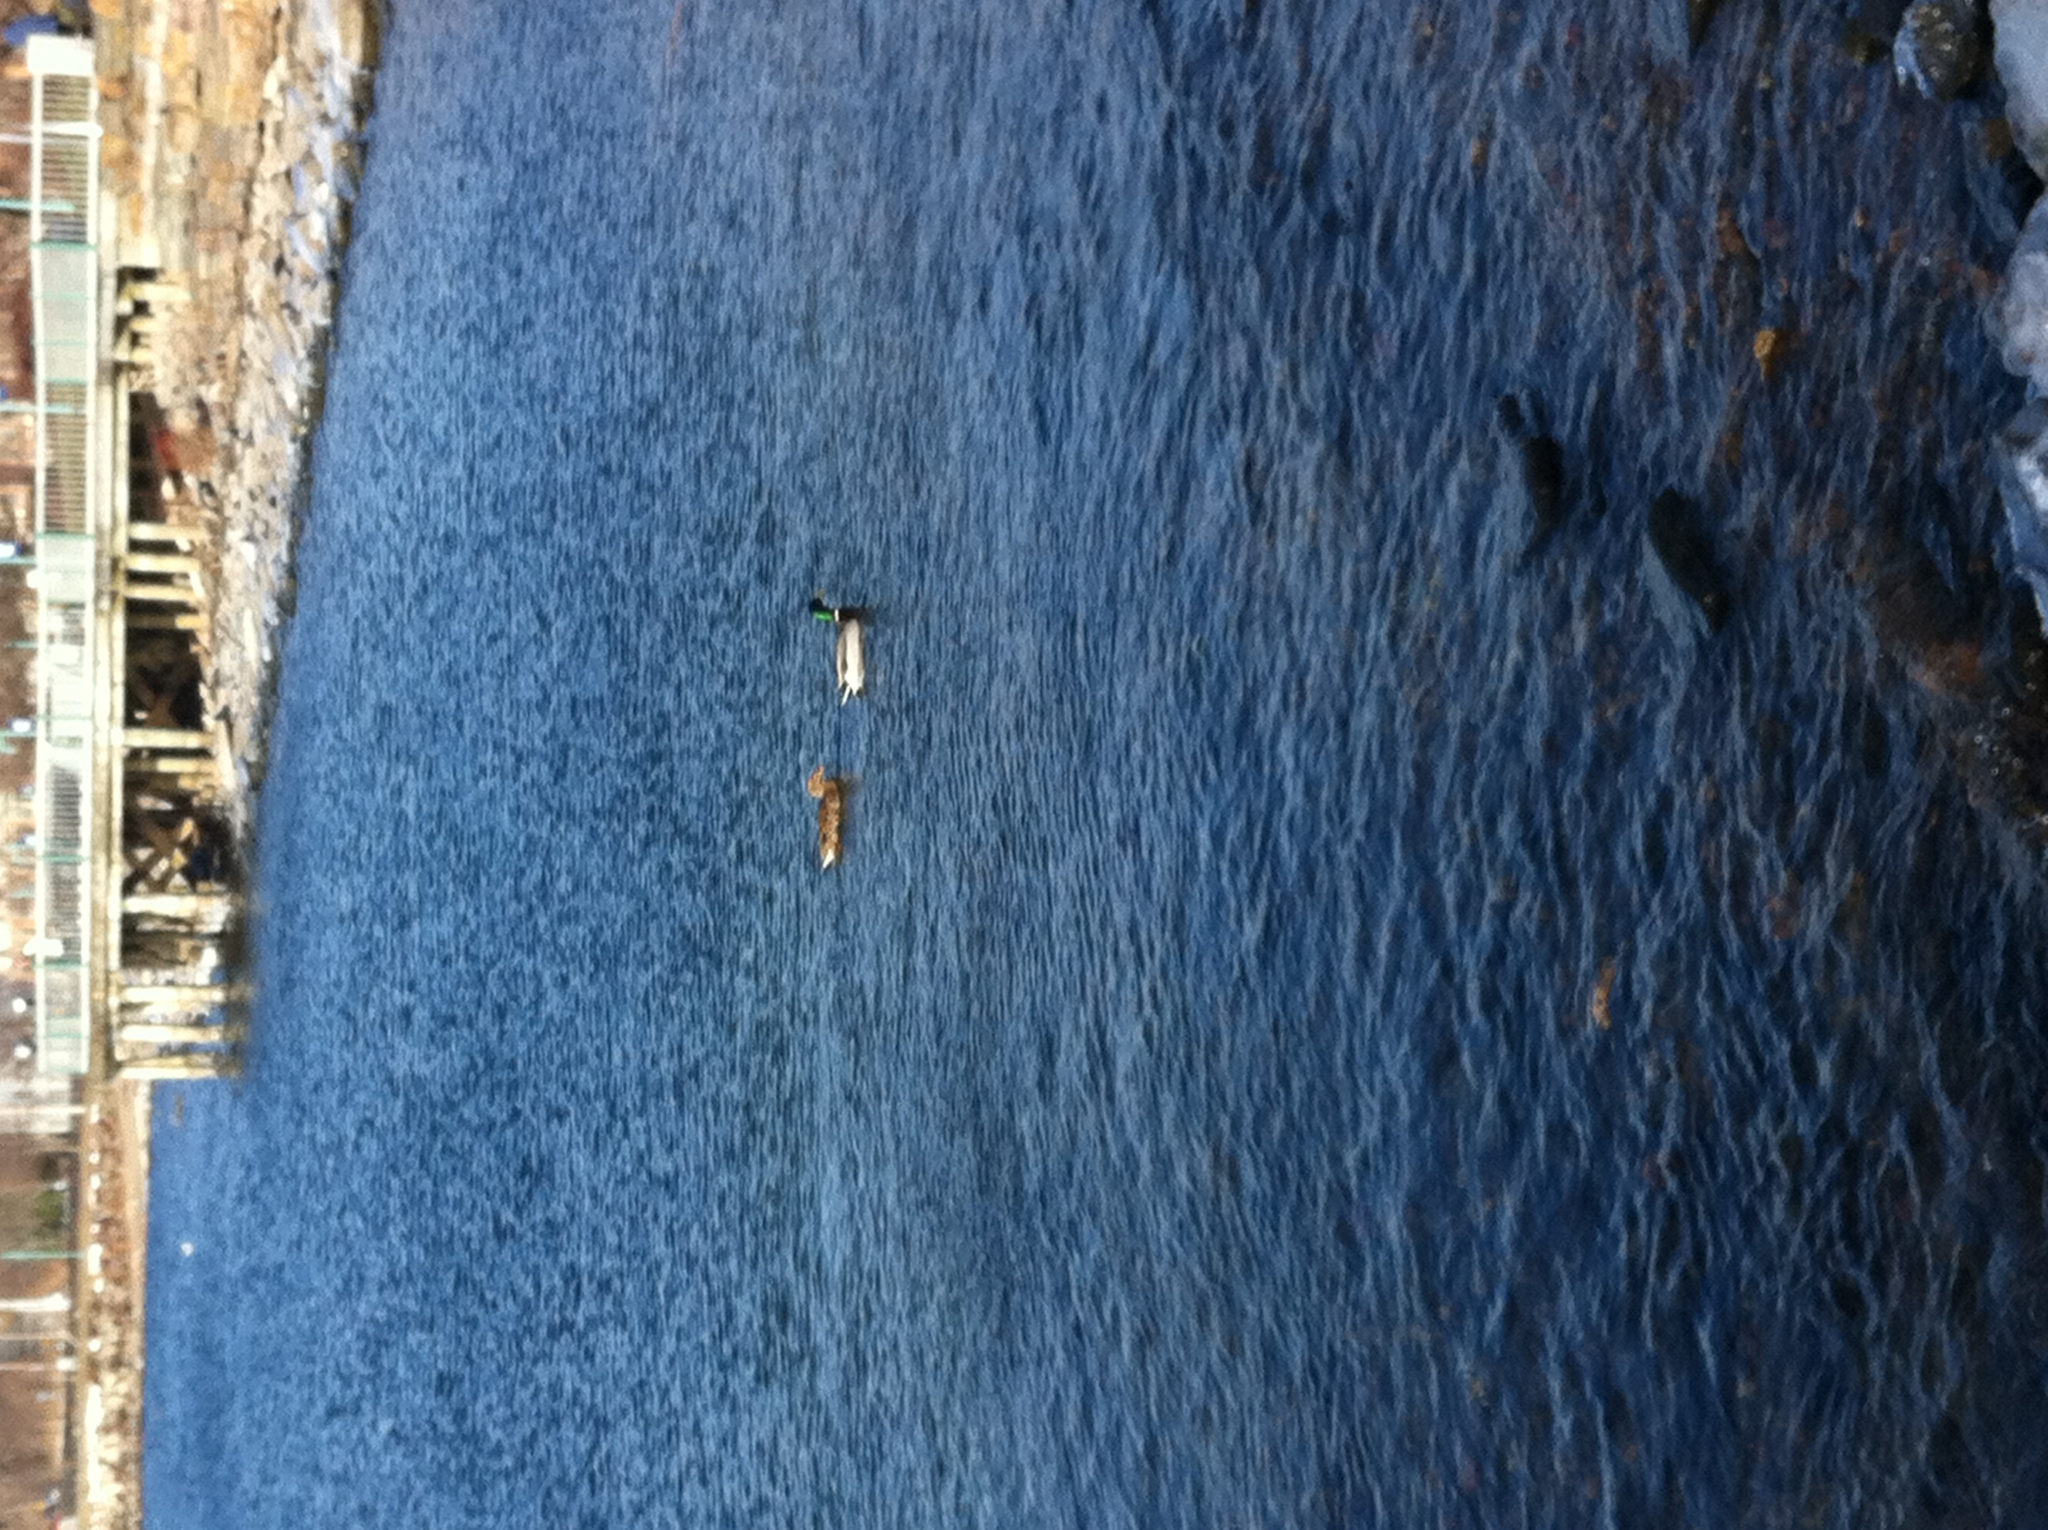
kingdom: Animalia
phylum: Chordata
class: Aves
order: Anseriformes
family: Anatidae
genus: Anas
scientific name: Anas platyrhynchos
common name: Mallard
